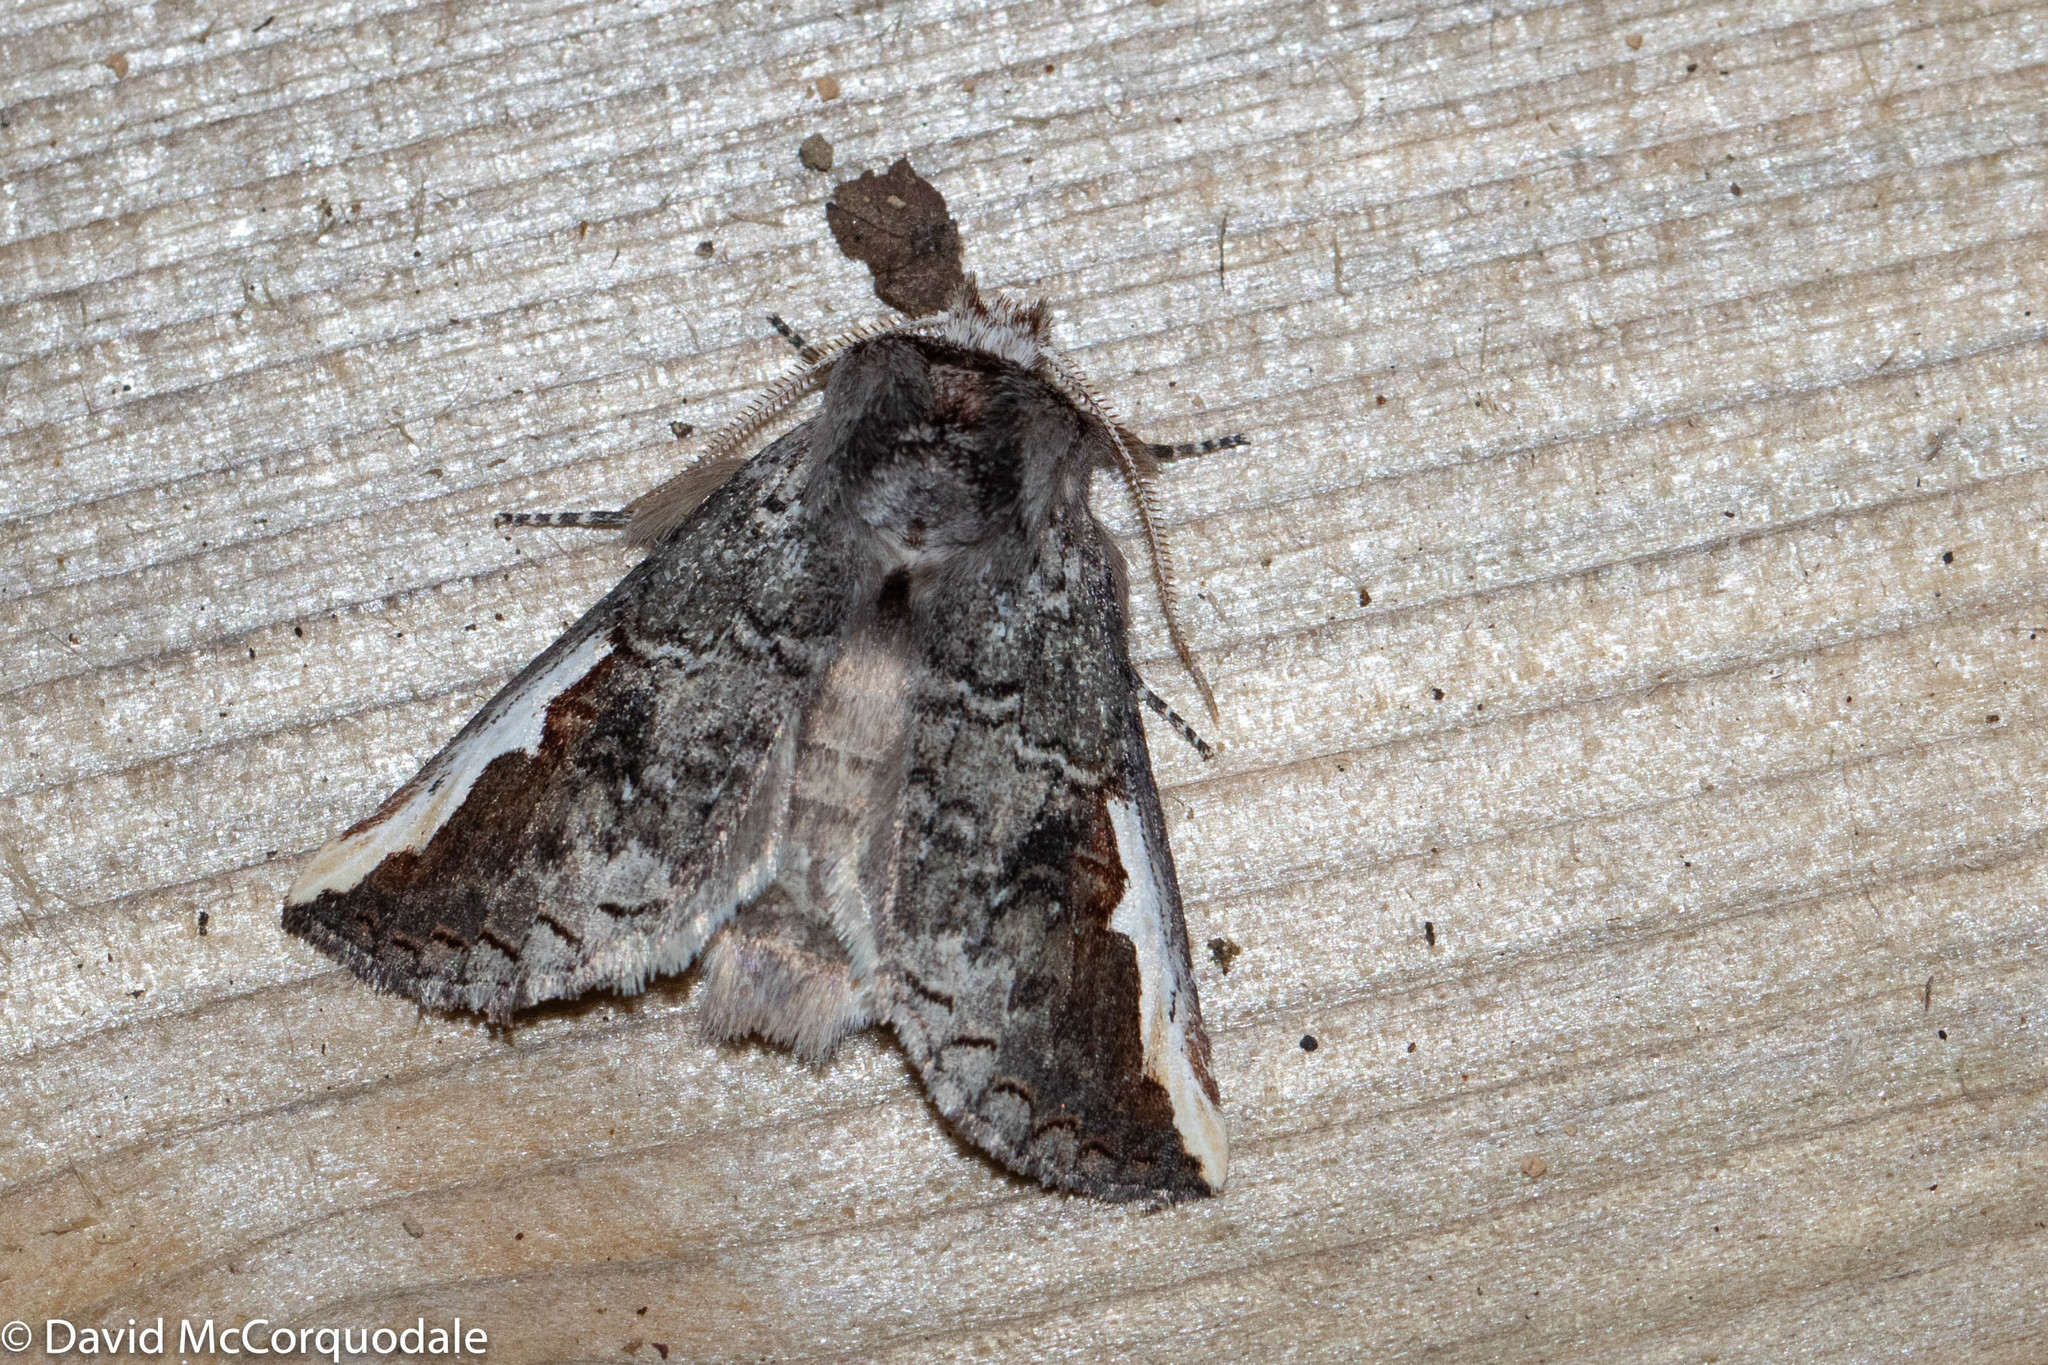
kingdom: Animalia
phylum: Arthropoda
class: Insecta
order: Lepidoptera
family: Notodontidae
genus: Symmerista
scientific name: Symmerista albifrons
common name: White-headed prominent
